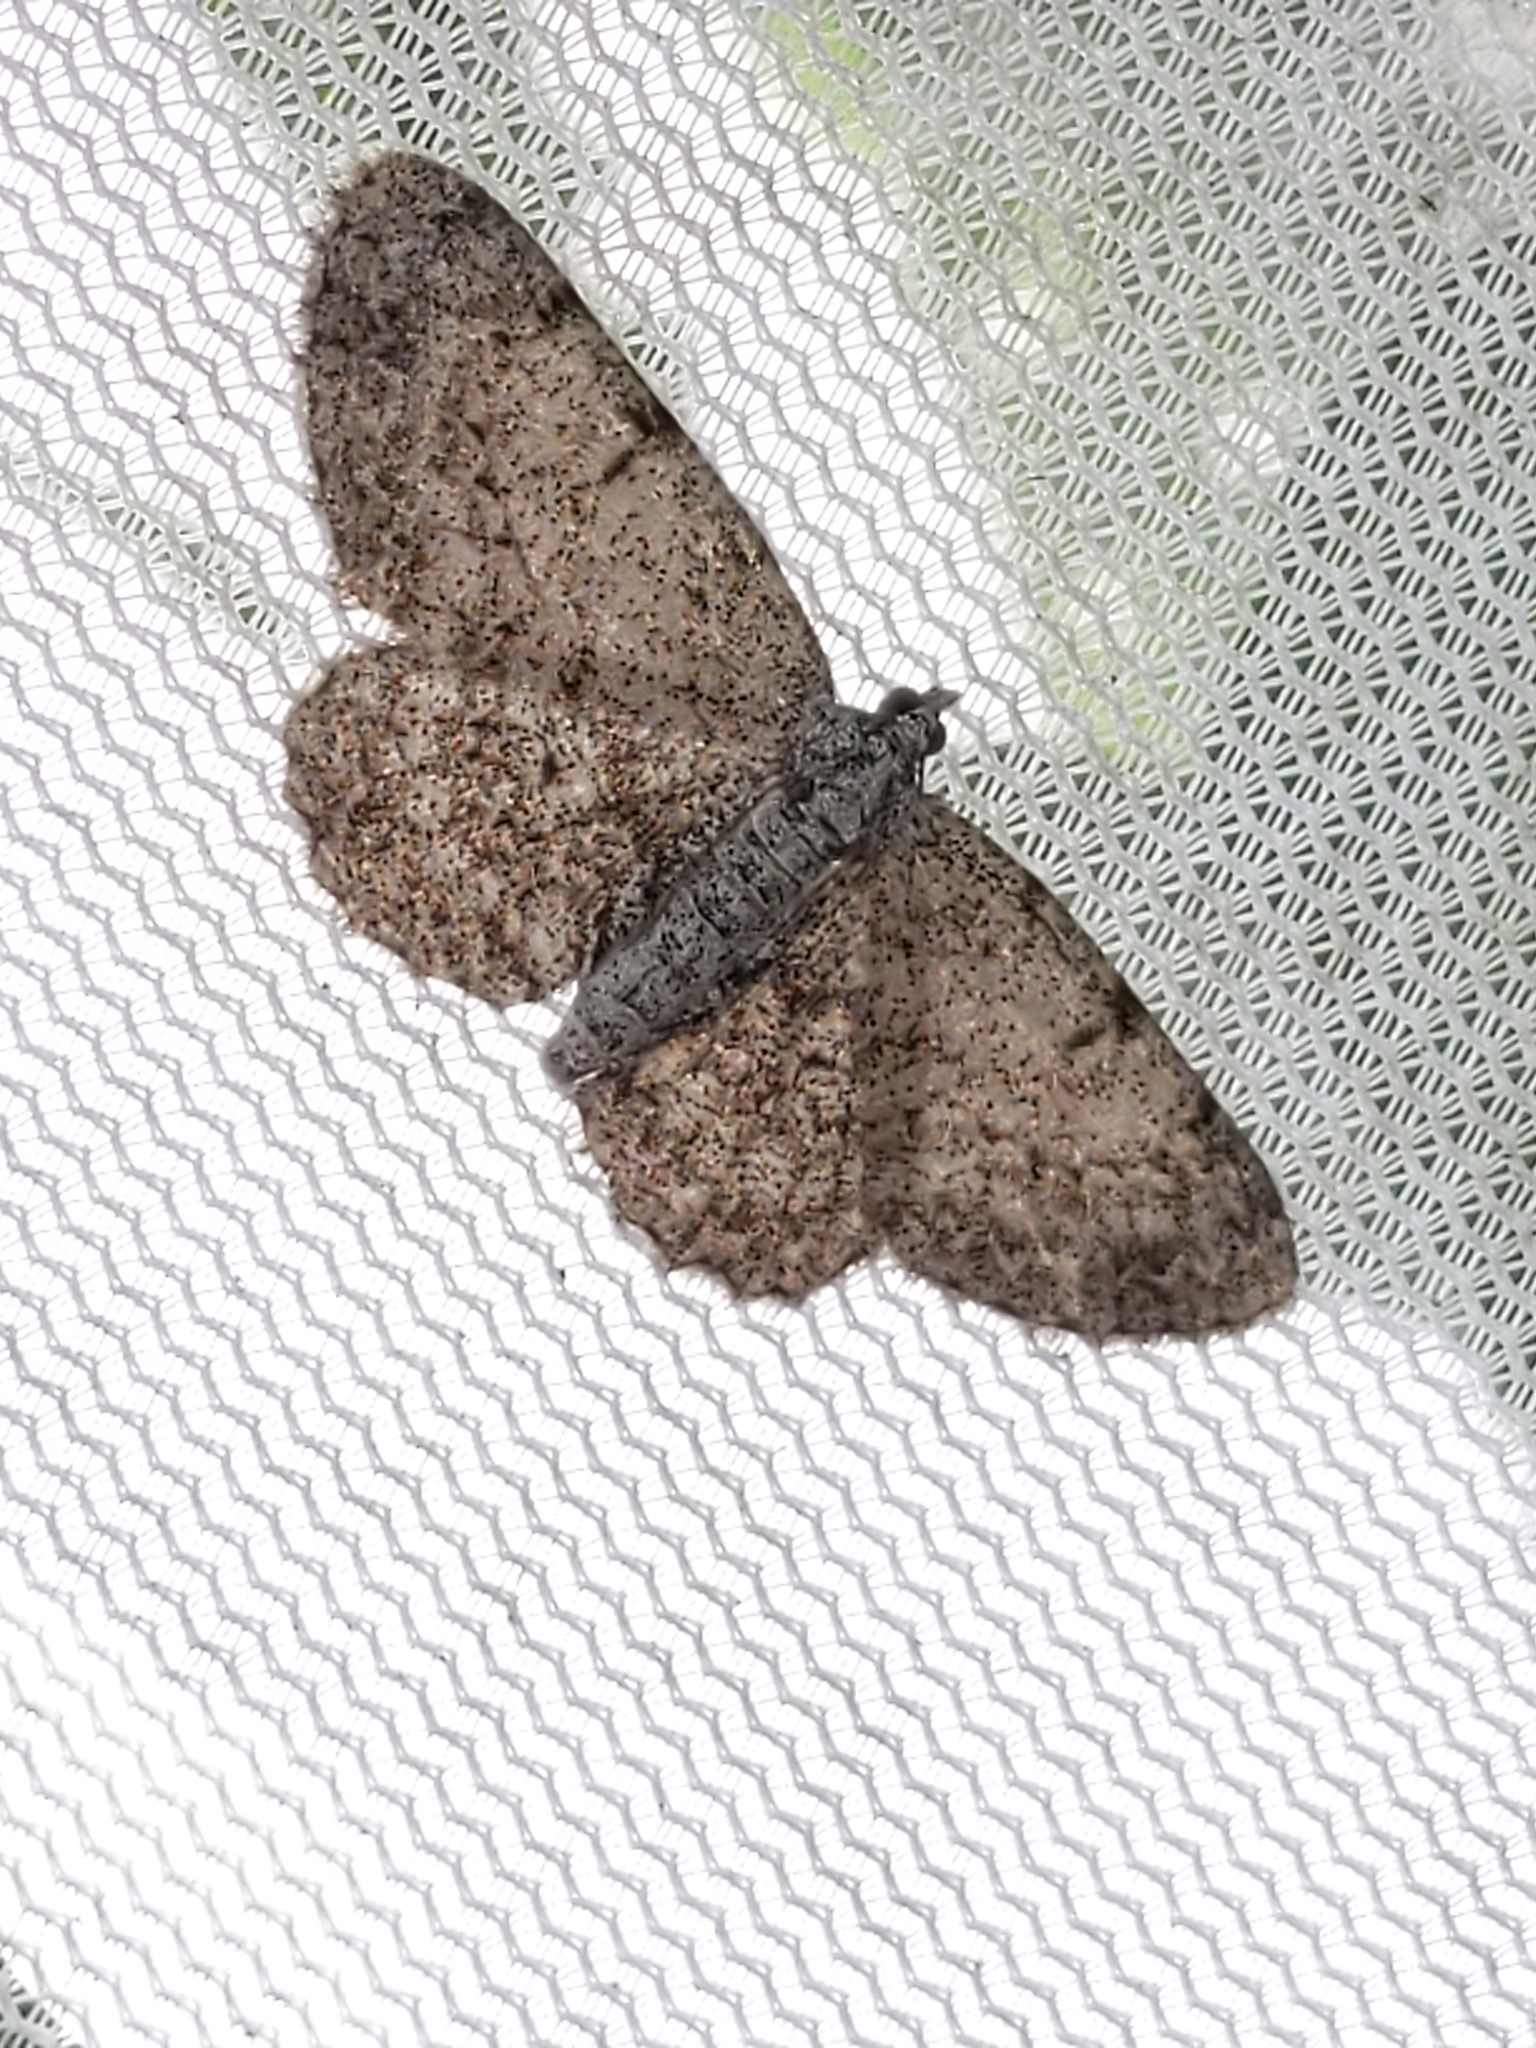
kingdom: Animalia
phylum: Arthropoda
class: Insecta
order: Lepidoptera
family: Geometridae
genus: Protoboarmia
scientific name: Protoboarmia porcelaria
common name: Porcelain gray
